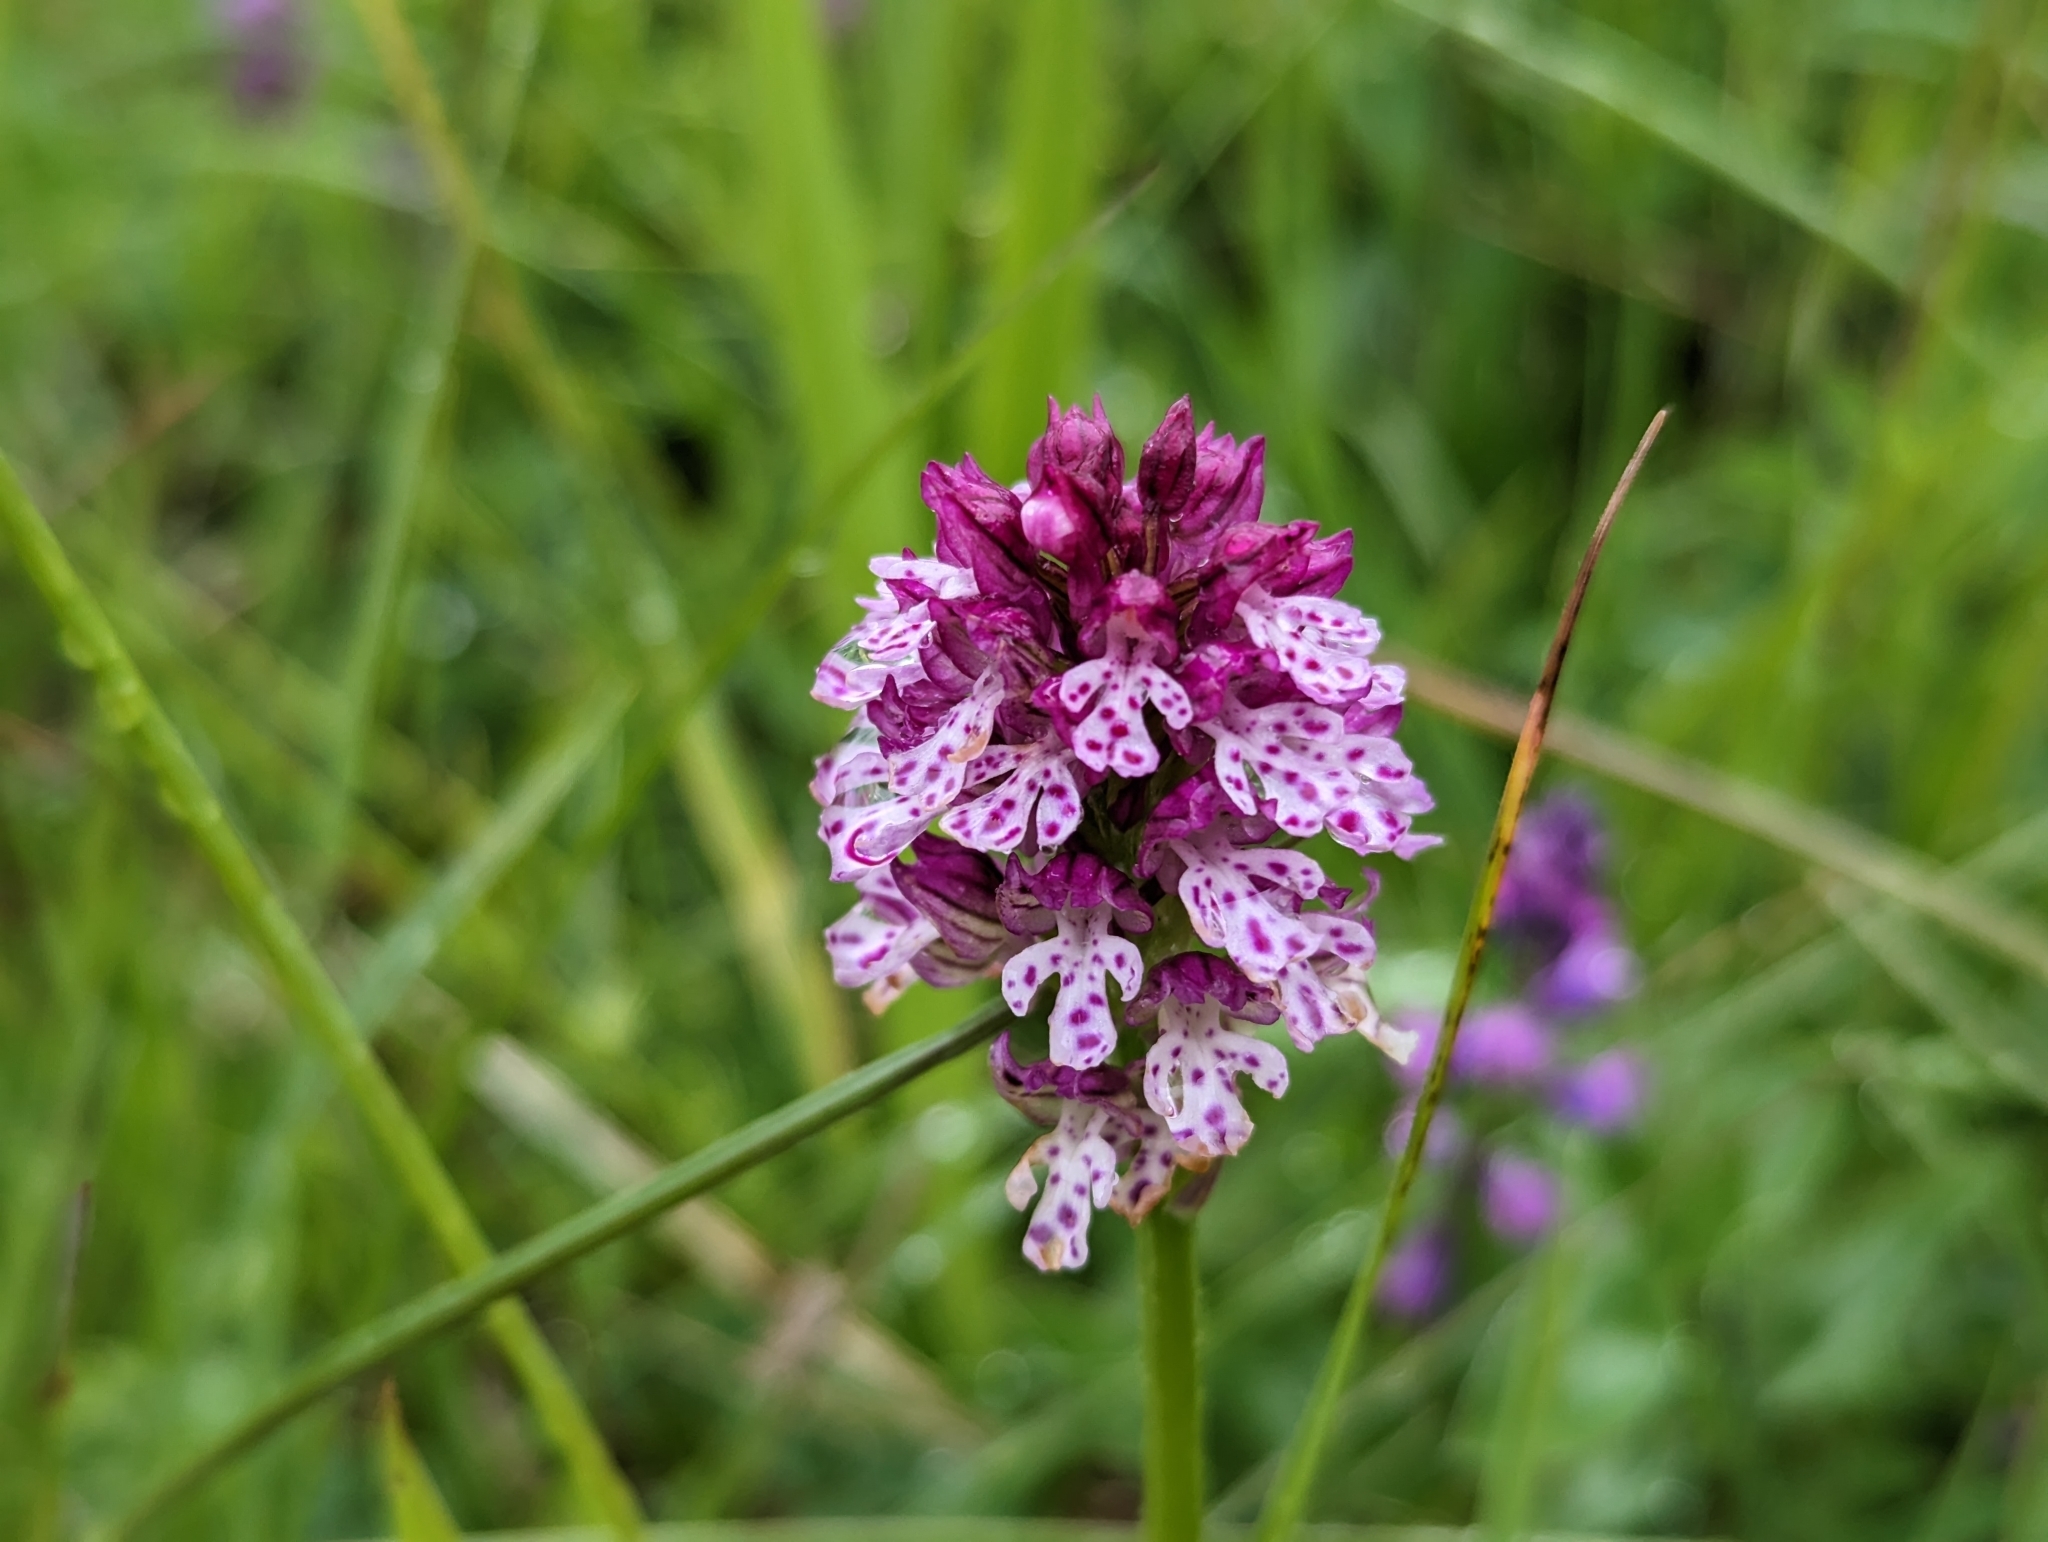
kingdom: Plantae
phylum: Tracheophyta
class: Liliopsida
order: Asparagales
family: Orchidaceae
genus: Neotinea
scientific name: Neotinea dietrichiana
